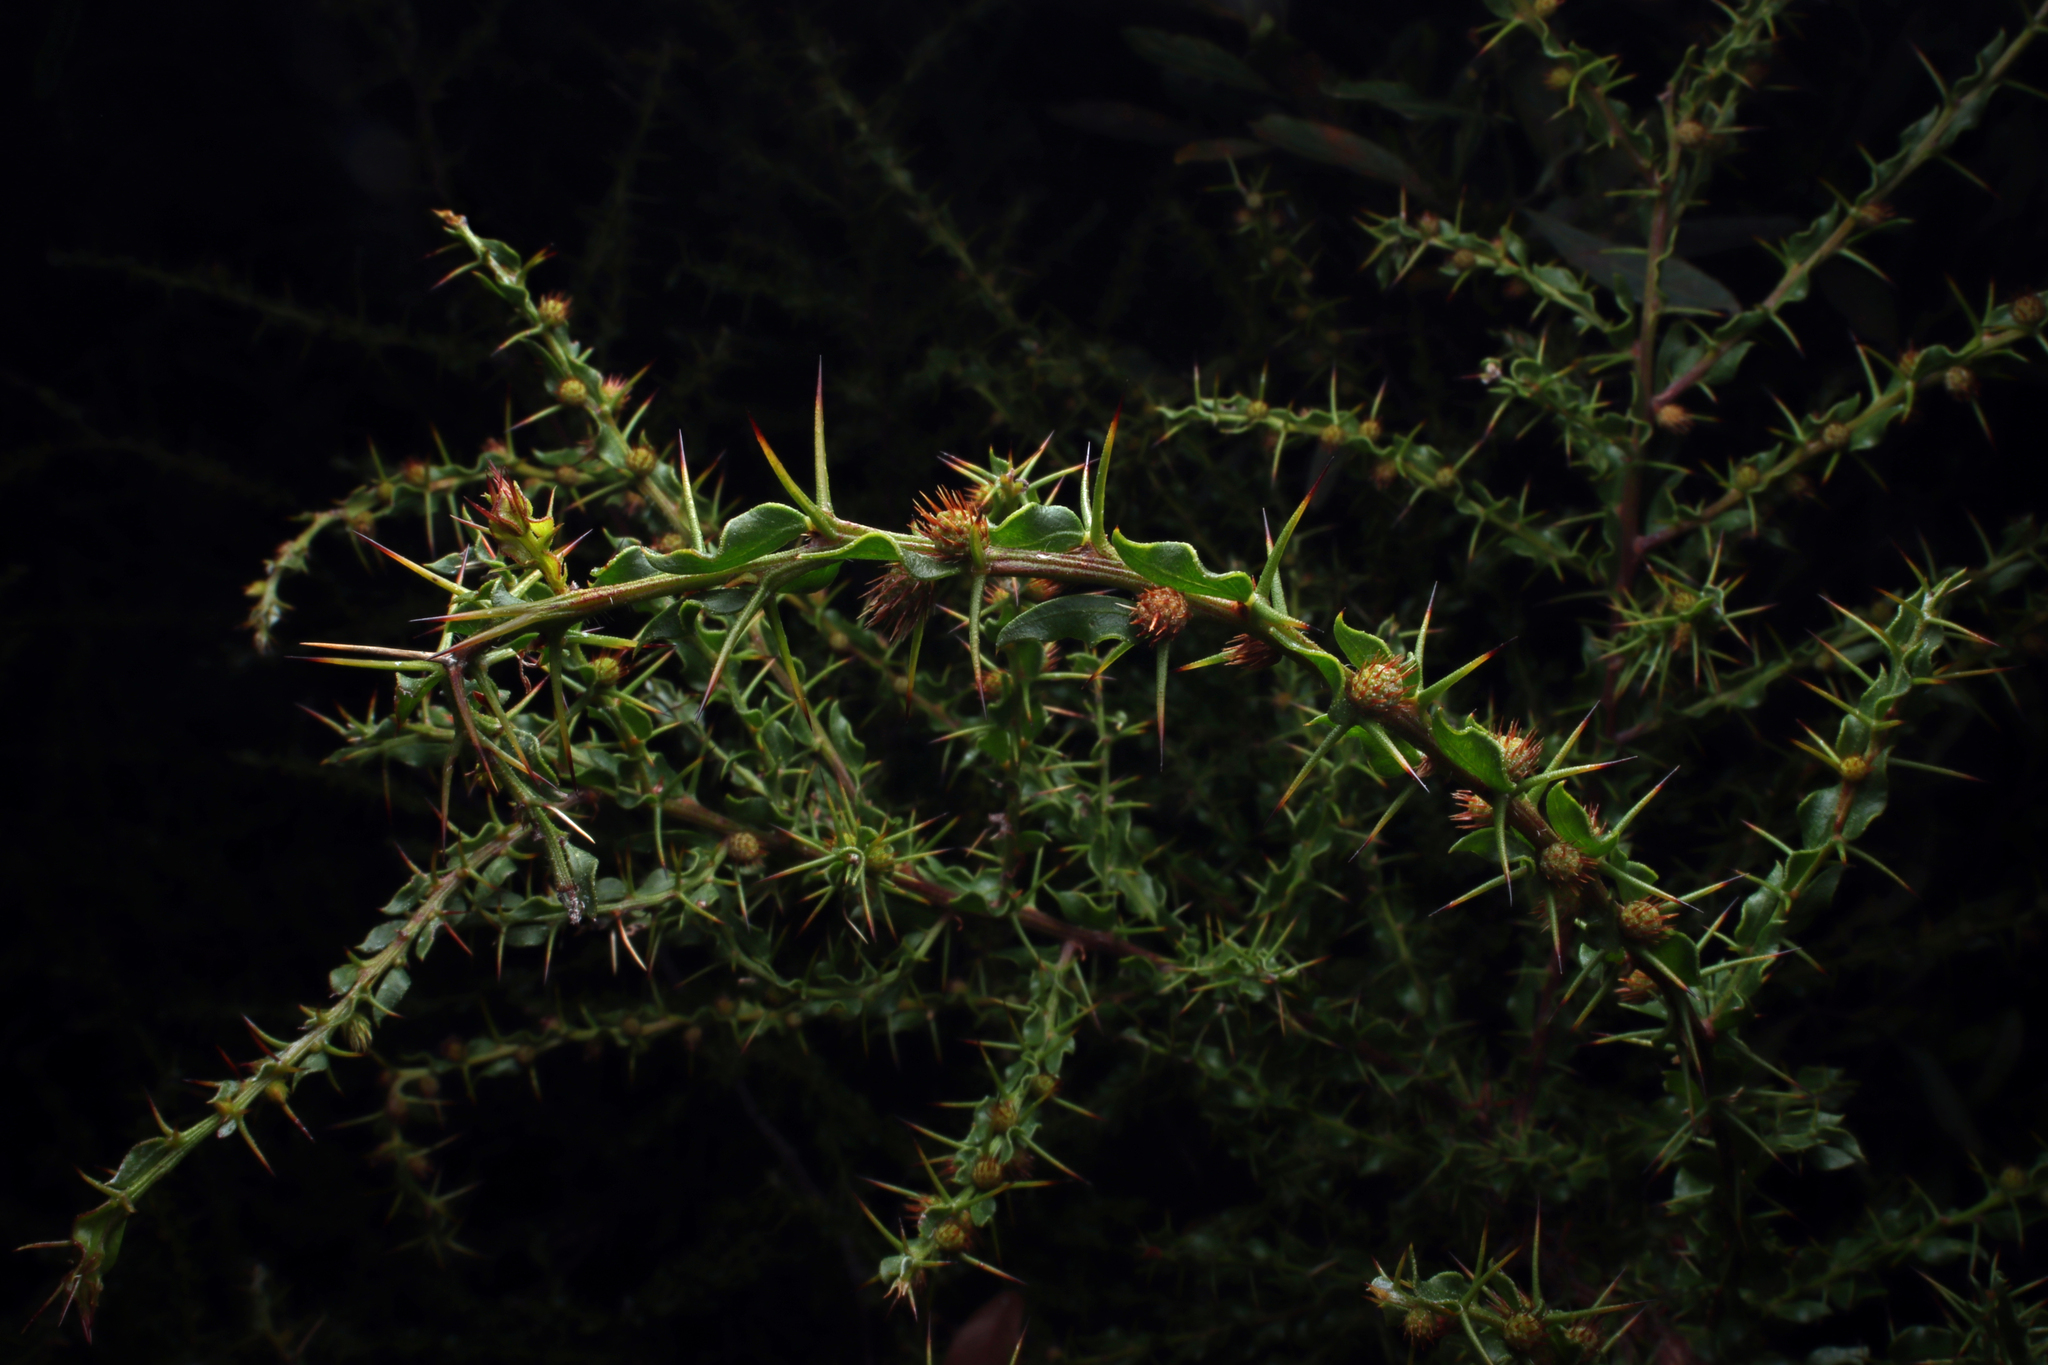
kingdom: Plantae
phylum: Tracheophyta
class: Magnoliopsida
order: Fabales
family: Fabaceae
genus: Acacia
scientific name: Acacia paradoxa
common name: Paradox acacia
